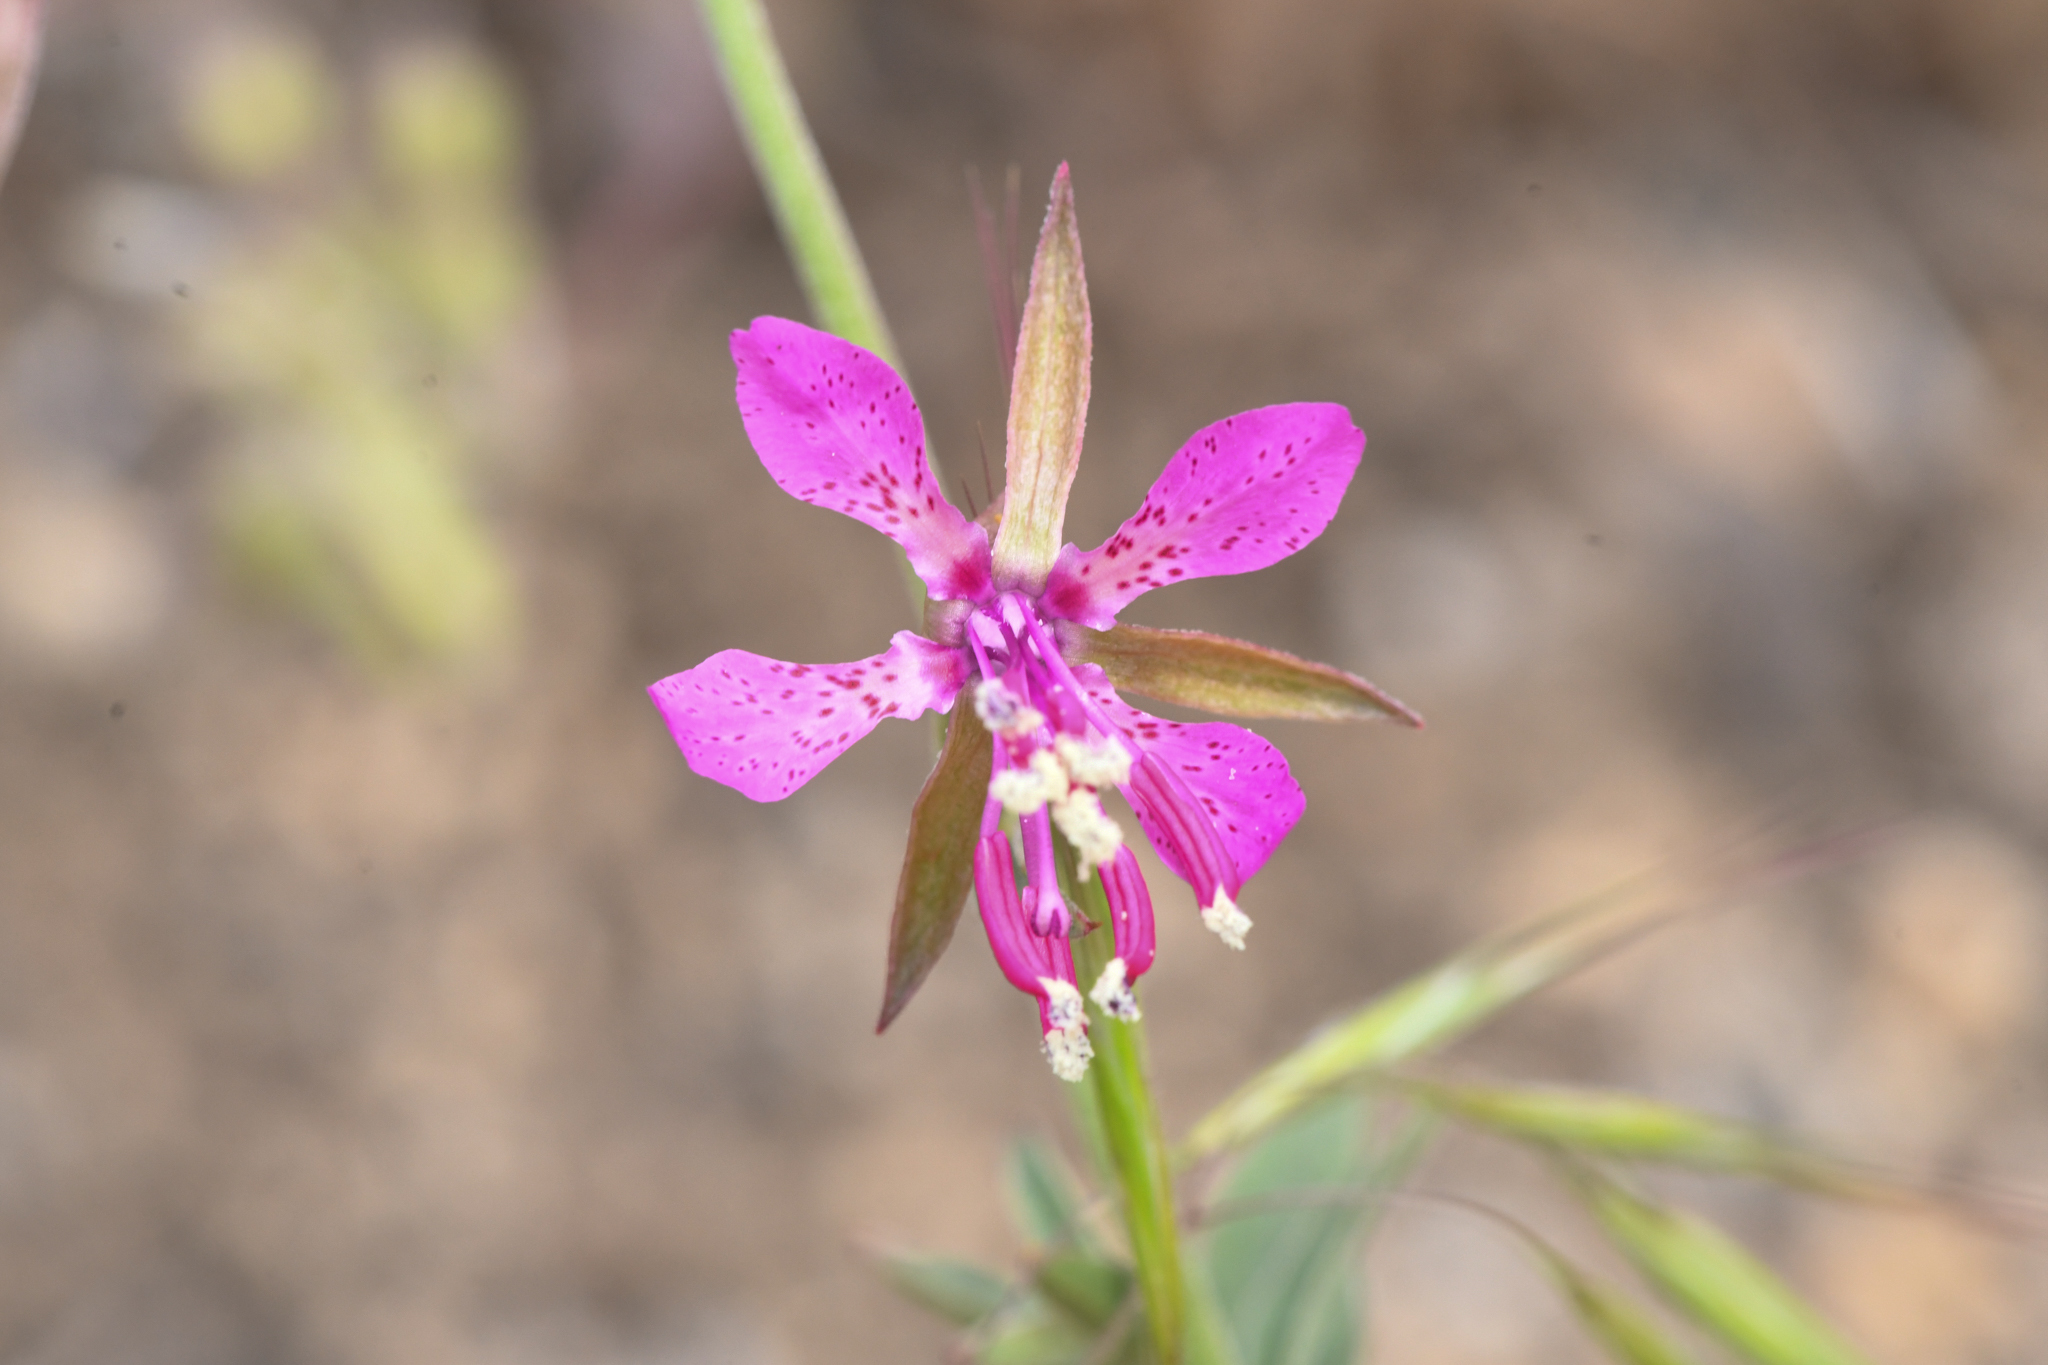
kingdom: Plantae
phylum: Tracheophyta
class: Magnoliopsida
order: Myrtales
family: Onagraceae
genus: Clarkia
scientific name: Clarkia rhomboidea
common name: Broadleaf clarkia
